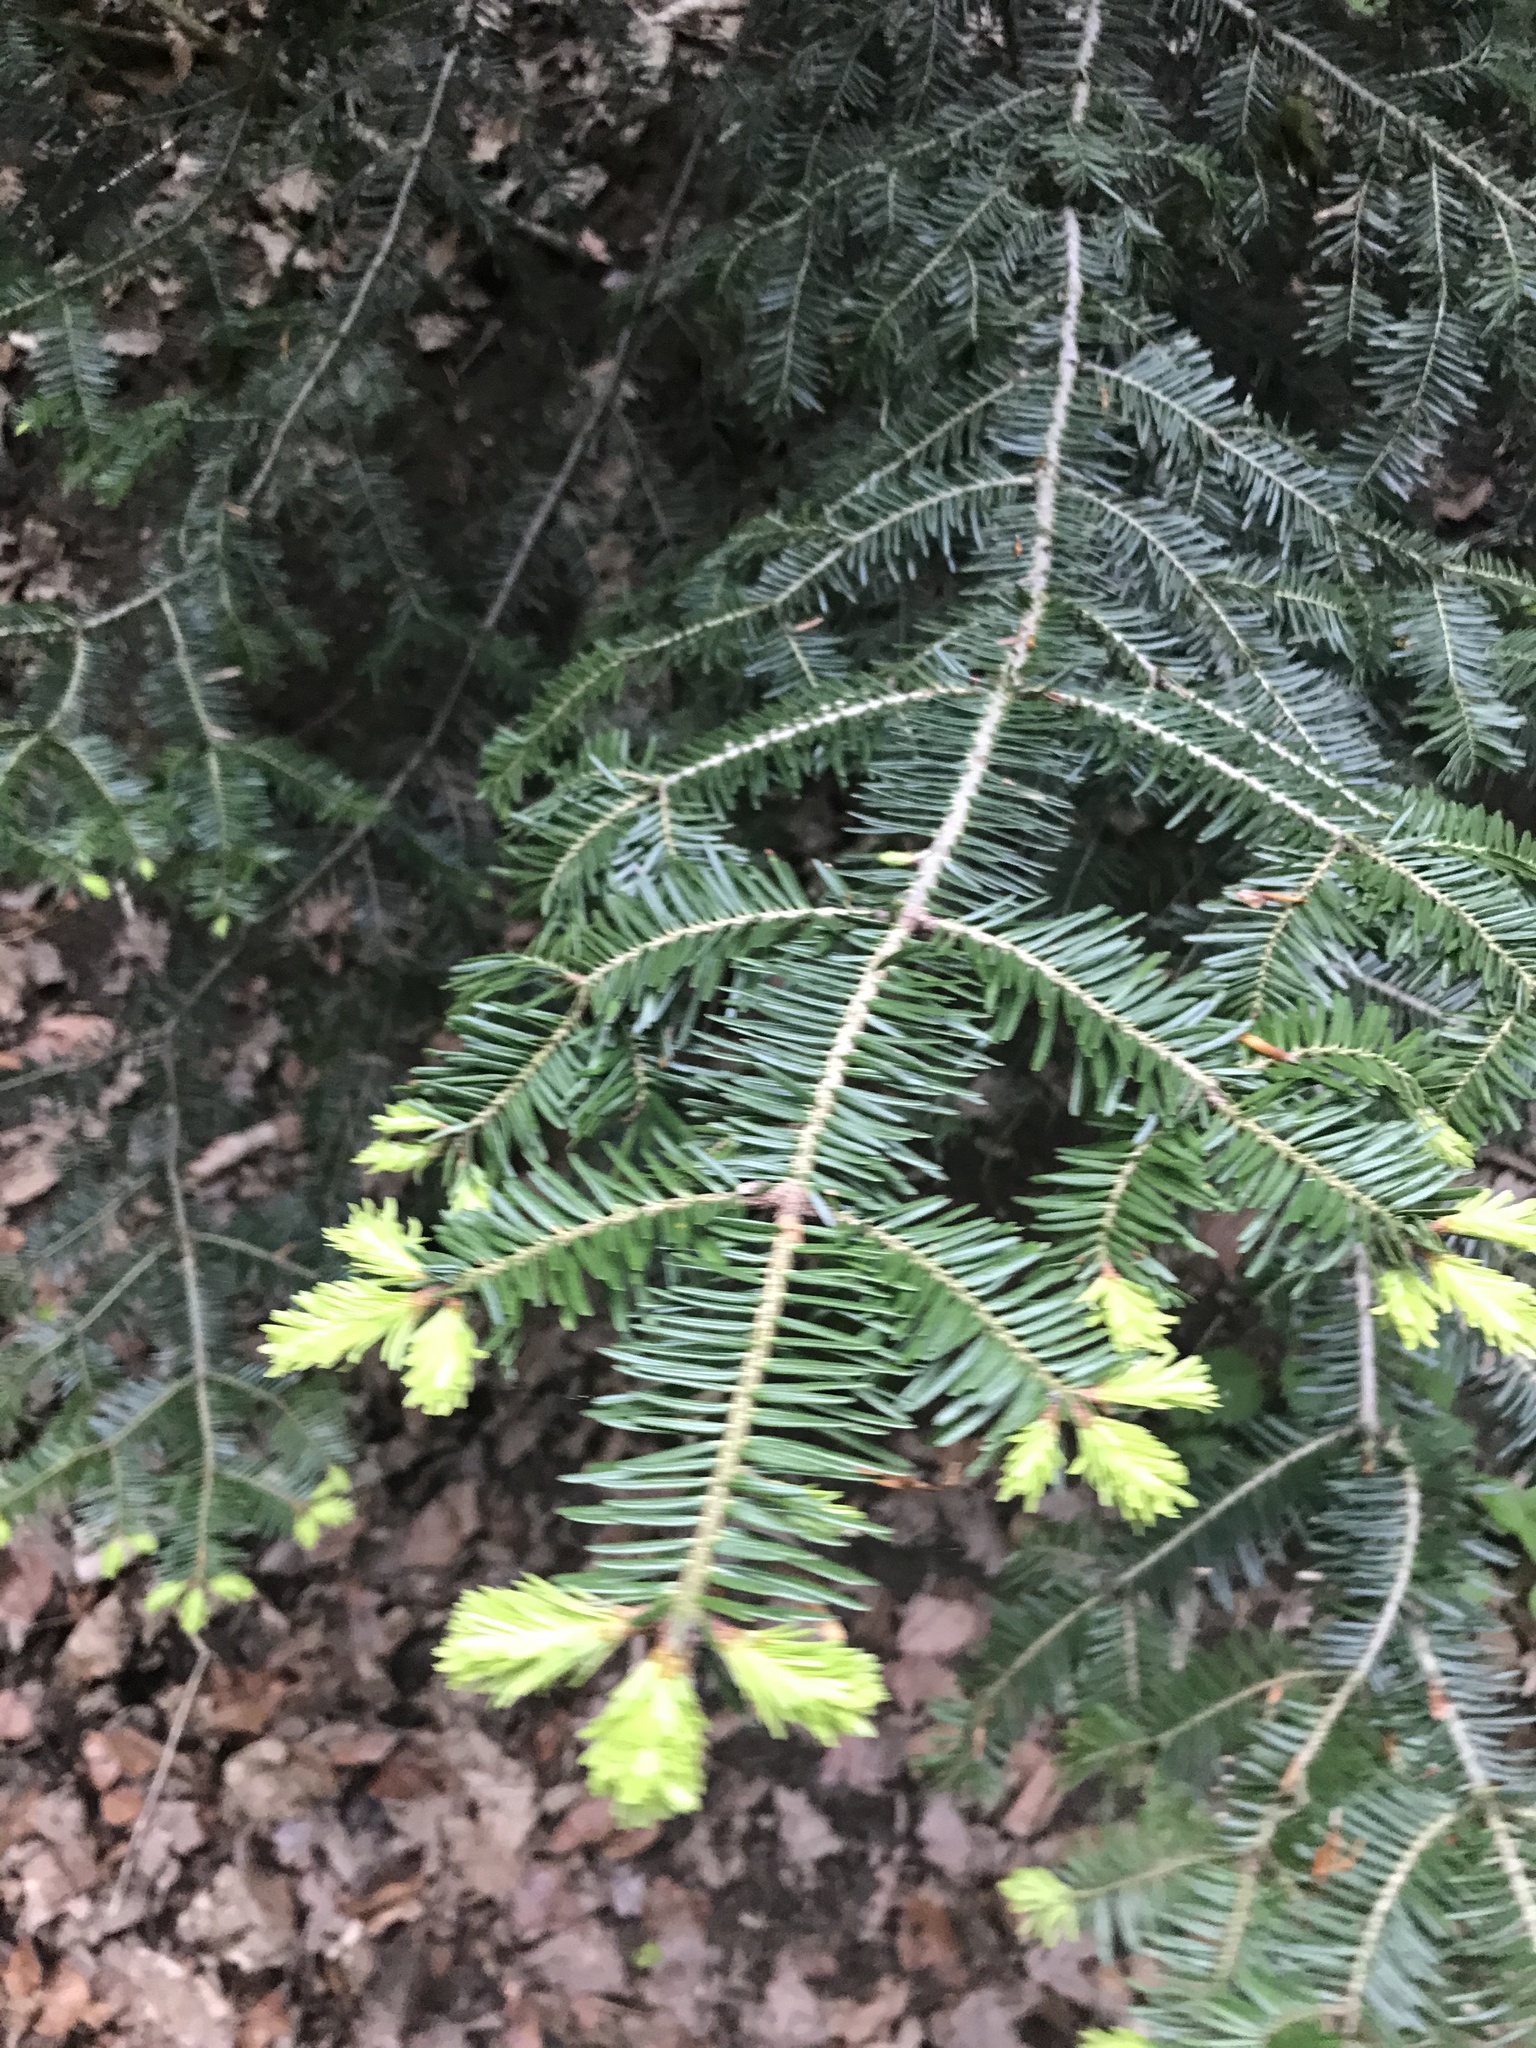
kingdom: Plantae
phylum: Tracheophyta
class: Pinopsida
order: Pinales
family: Pinaceae
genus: Abies
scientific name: Abies alba
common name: Silver fir
